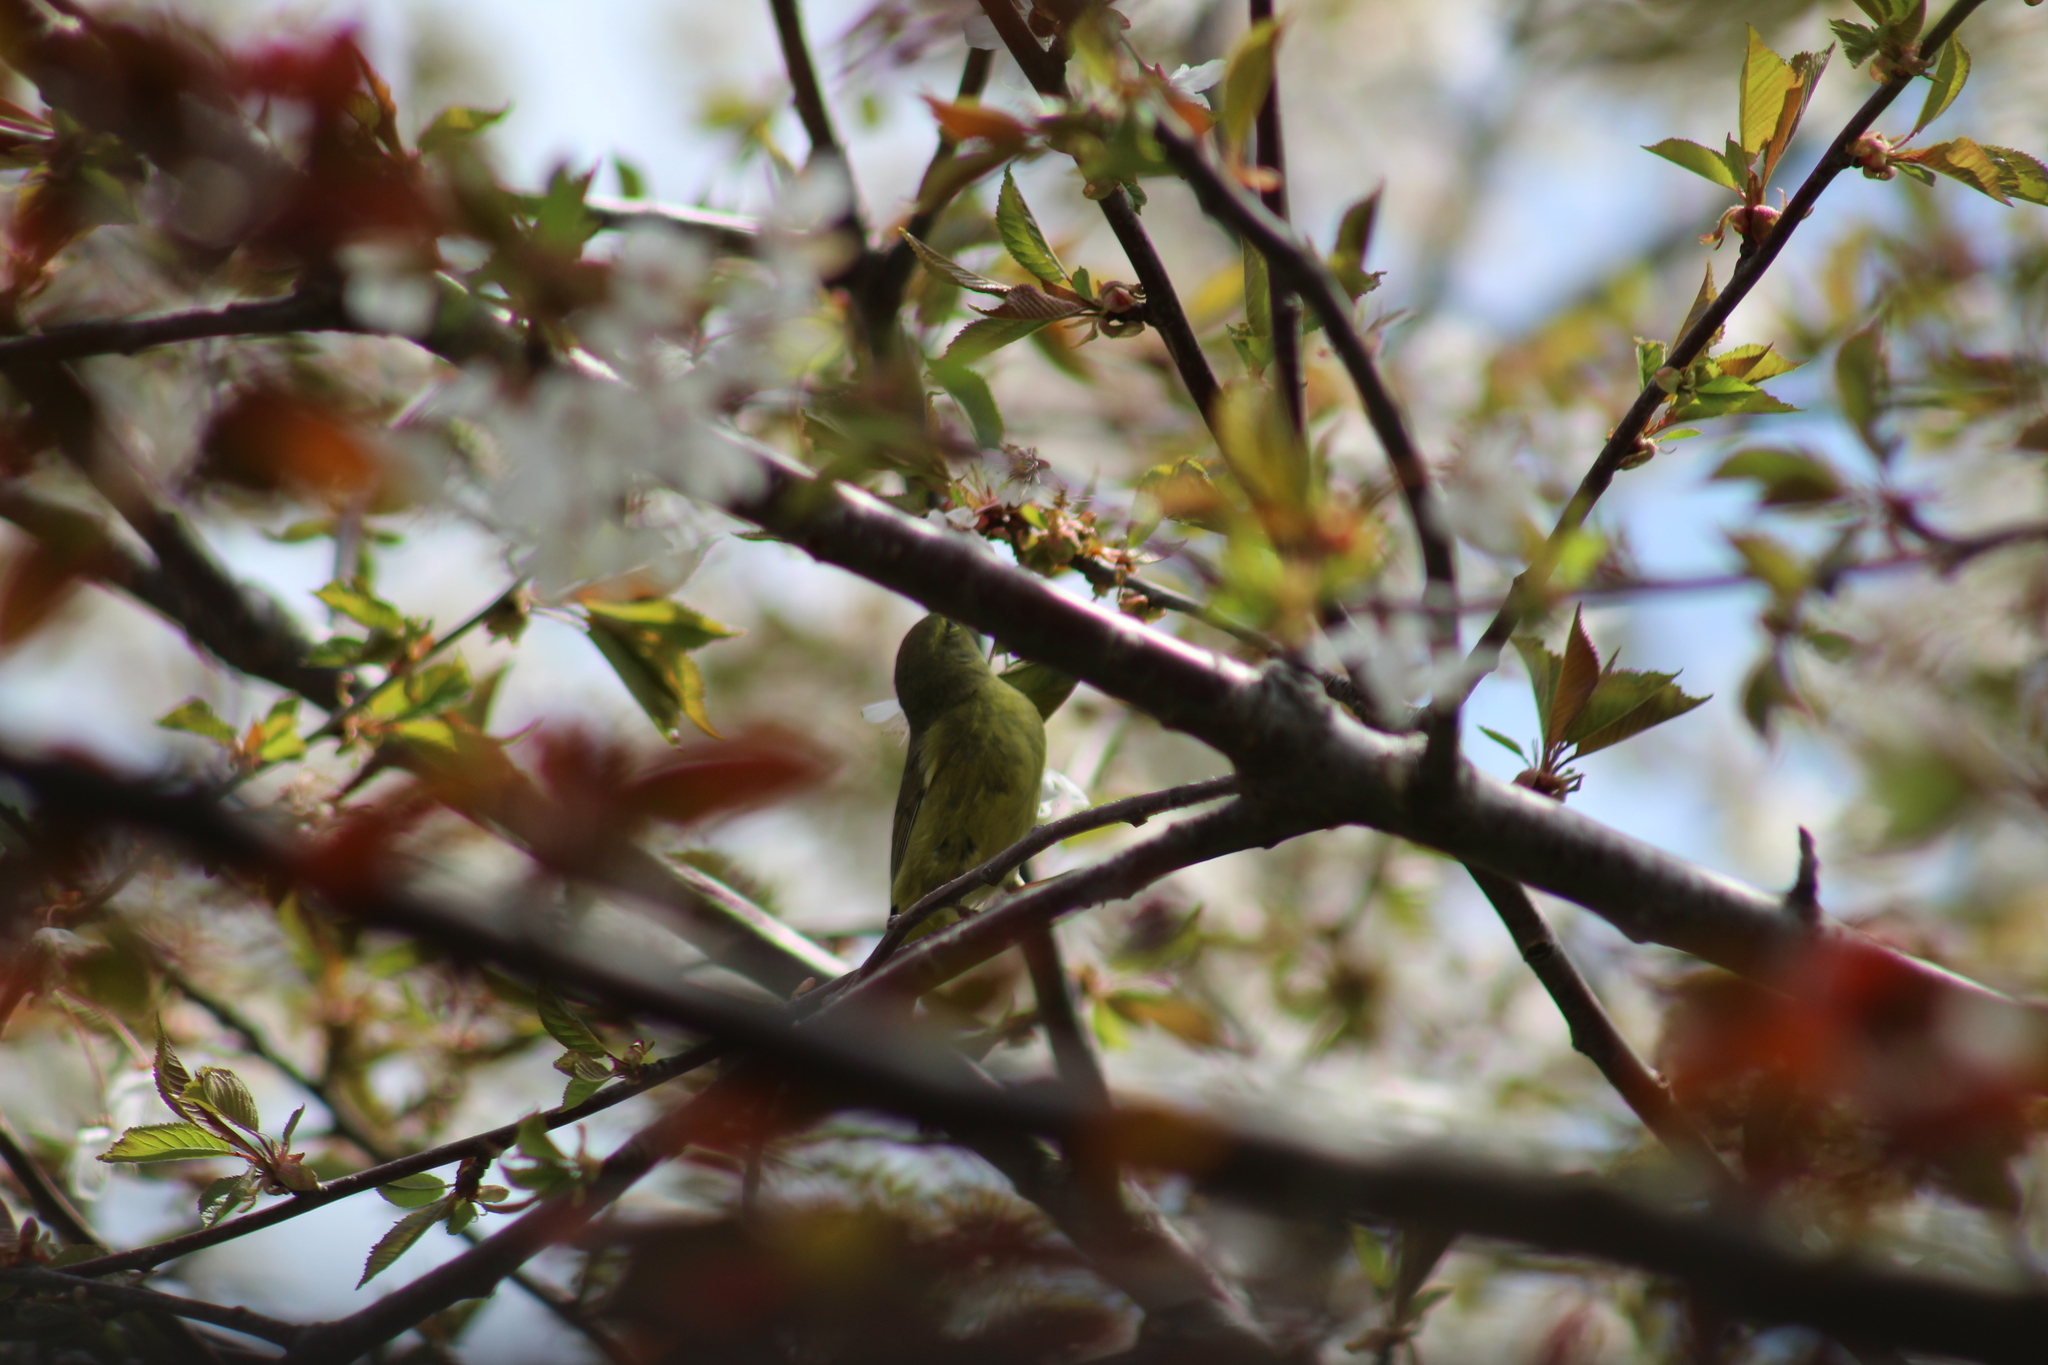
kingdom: Animalia
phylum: Chordata
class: Aves
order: Passeriformes
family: Parulidae
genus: Leiothlypis
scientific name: Leiothlypis celata
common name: Orange-crowned warbler
